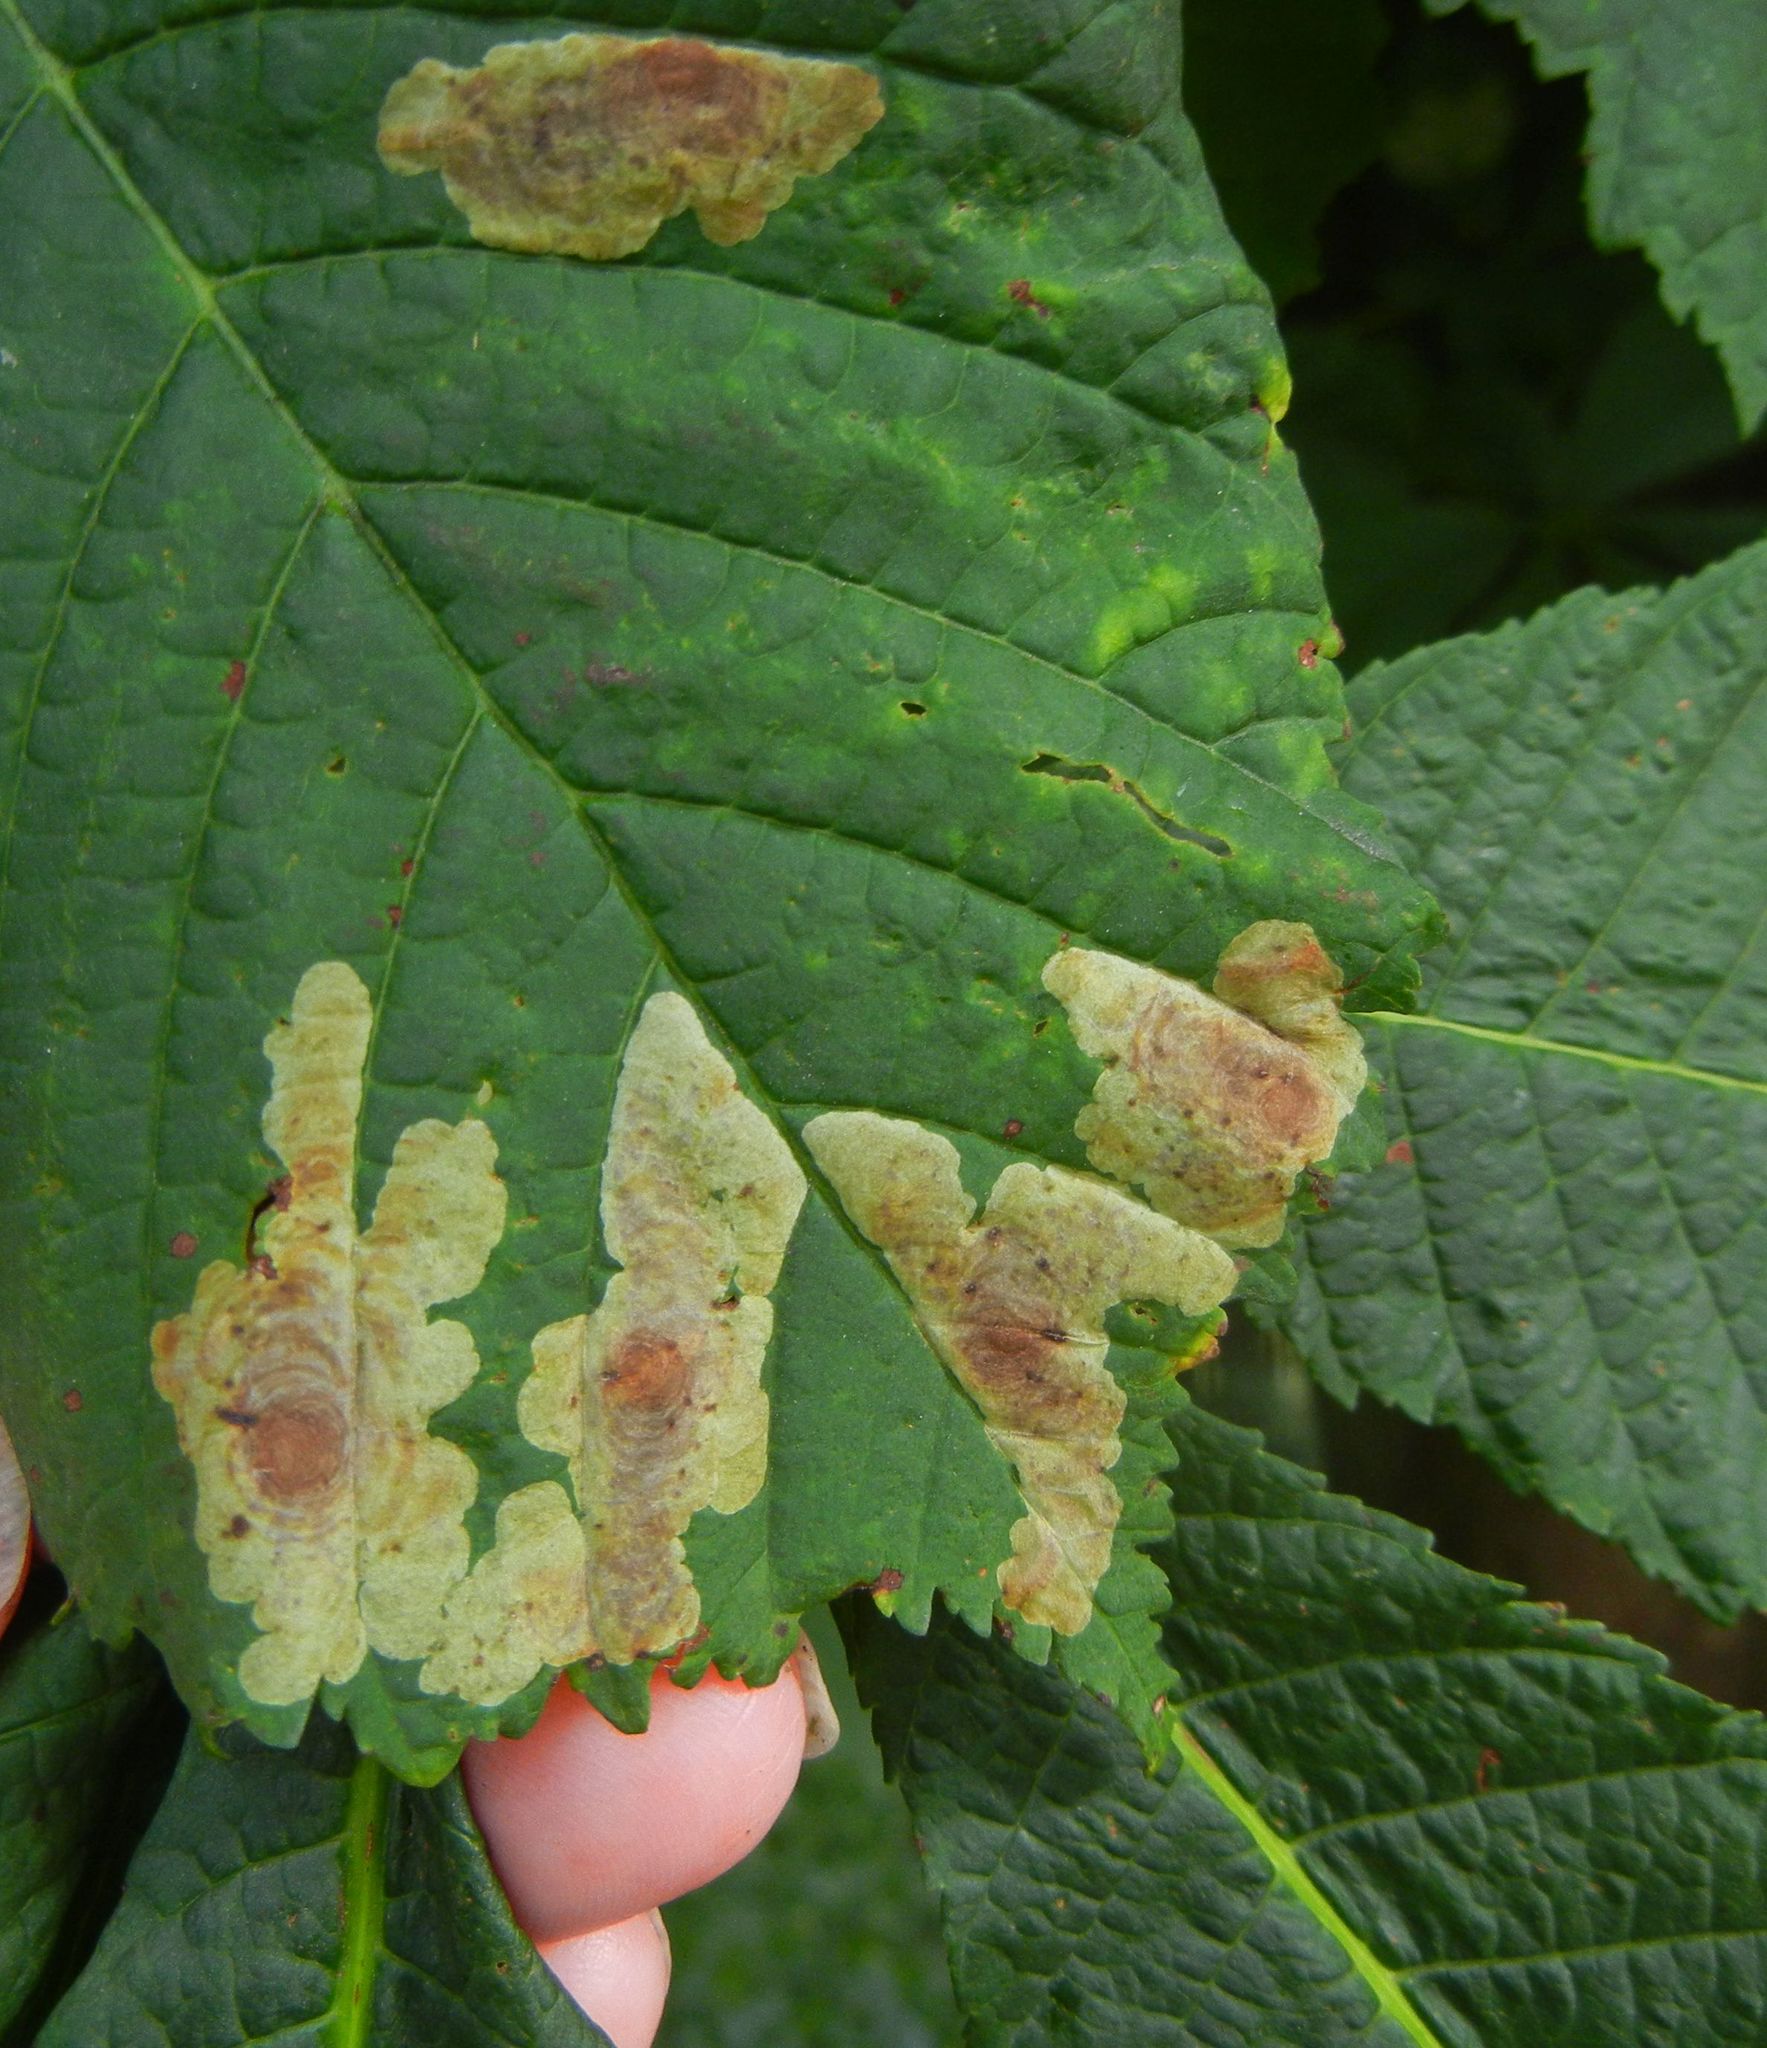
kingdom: Animalia
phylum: Arthropoda
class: Insecta
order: Lepidoptera
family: Gracillariidae
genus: Cameraria
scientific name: Cameraria ohridella
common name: Horse-chestnut leaf-miner
